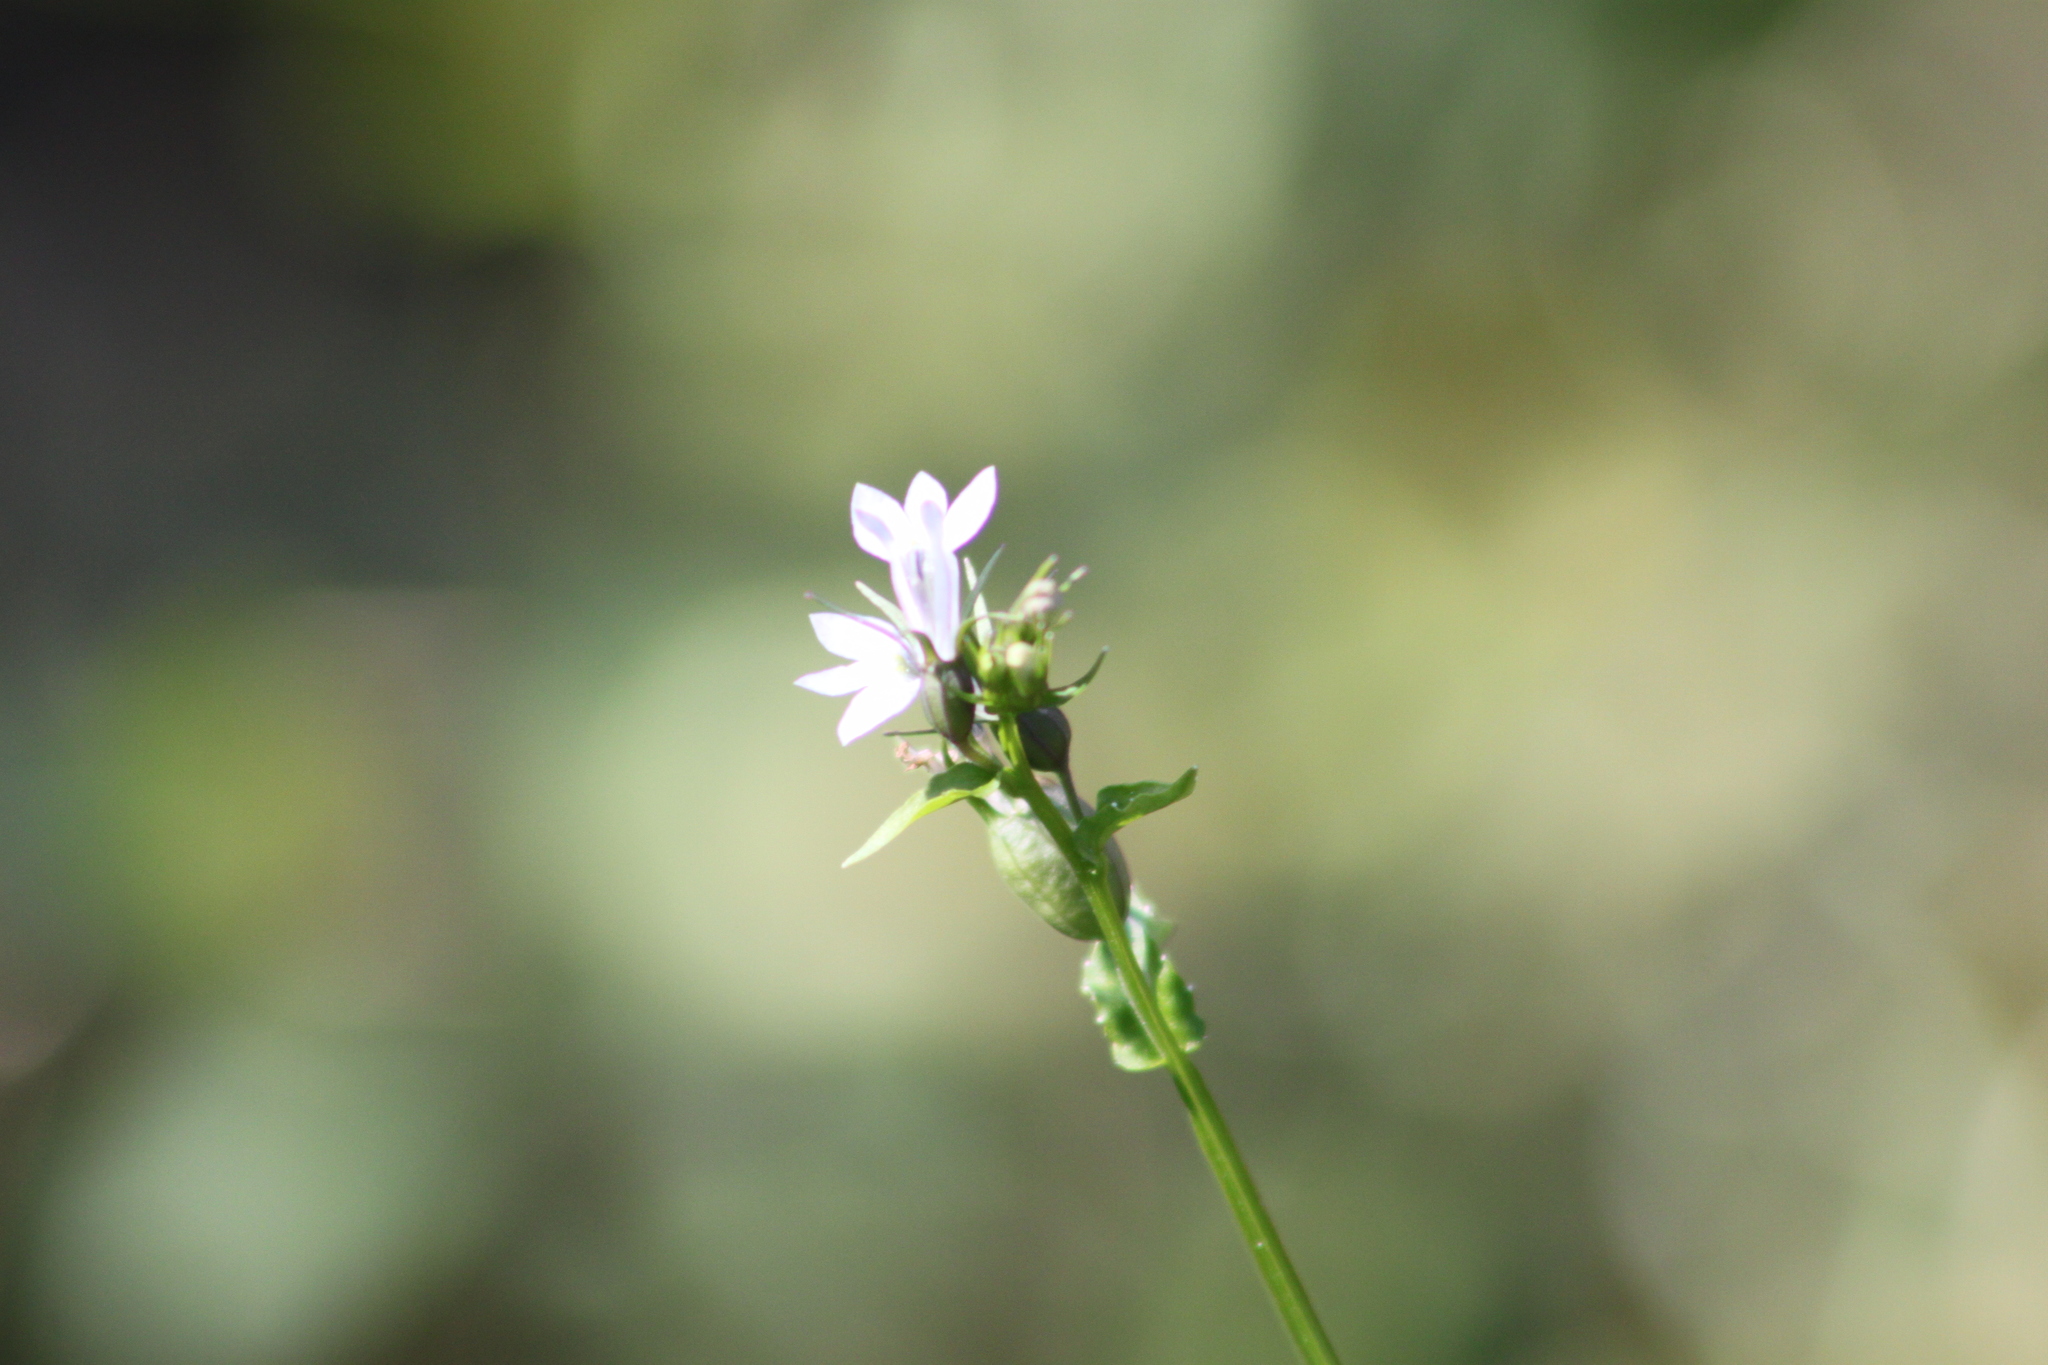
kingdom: Plantae
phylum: Tracheophyta
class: Magnoliopsida
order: Asterales
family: Campanulaceae
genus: Lobelia
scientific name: Lobelia inflata
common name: Indian tobacco
